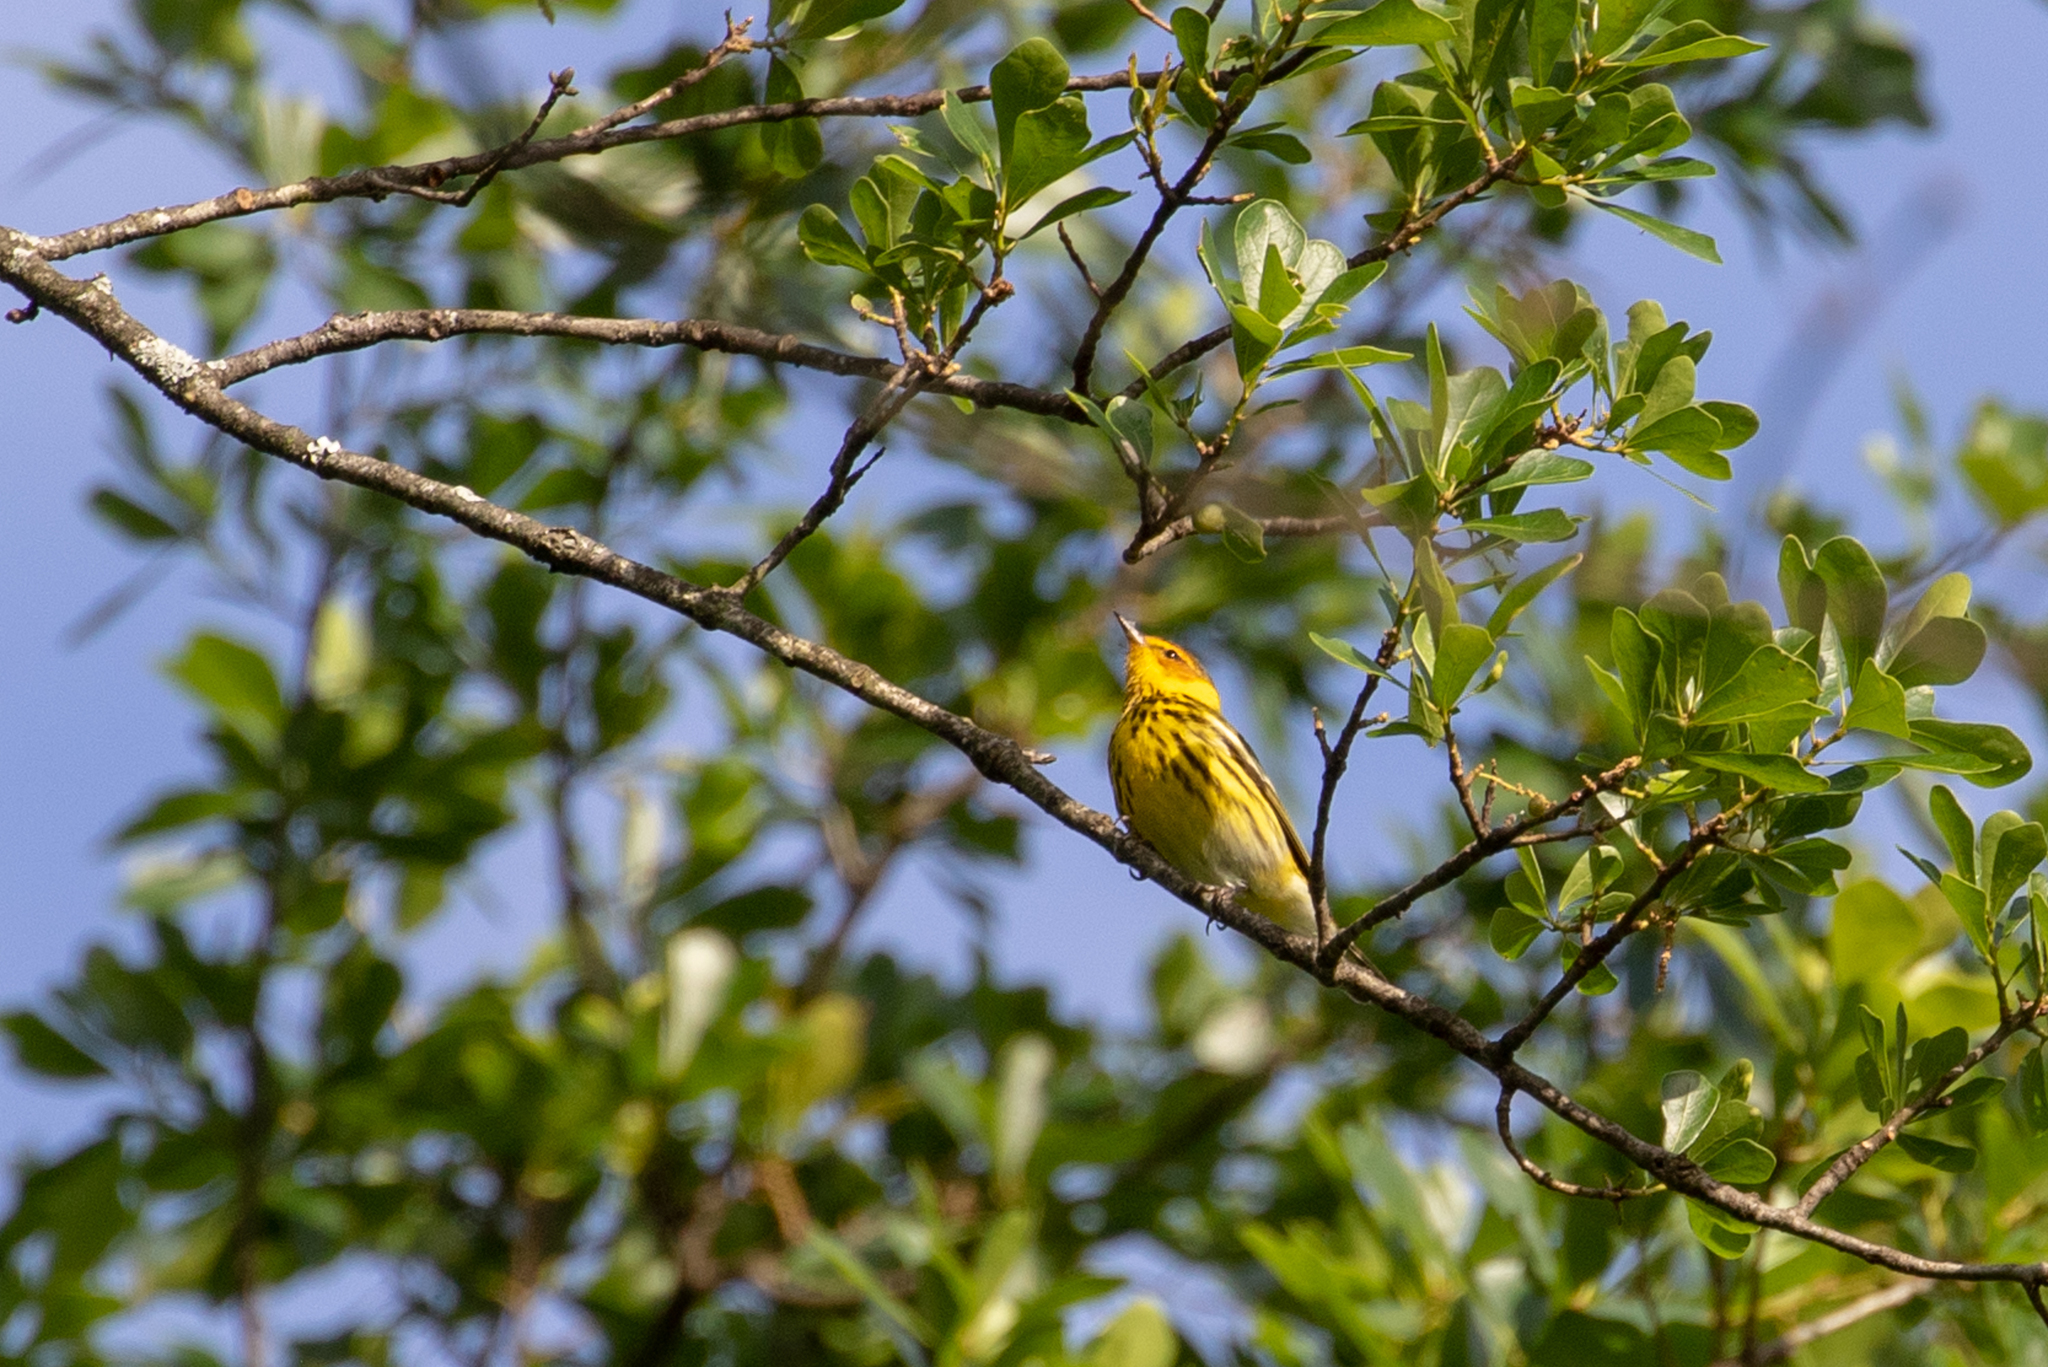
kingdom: Animalia
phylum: Chordata
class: Aves
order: Passeriformes
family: Parulidae
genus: Setophaga
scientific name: Setophaga tigrina
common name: Cape may warbler
